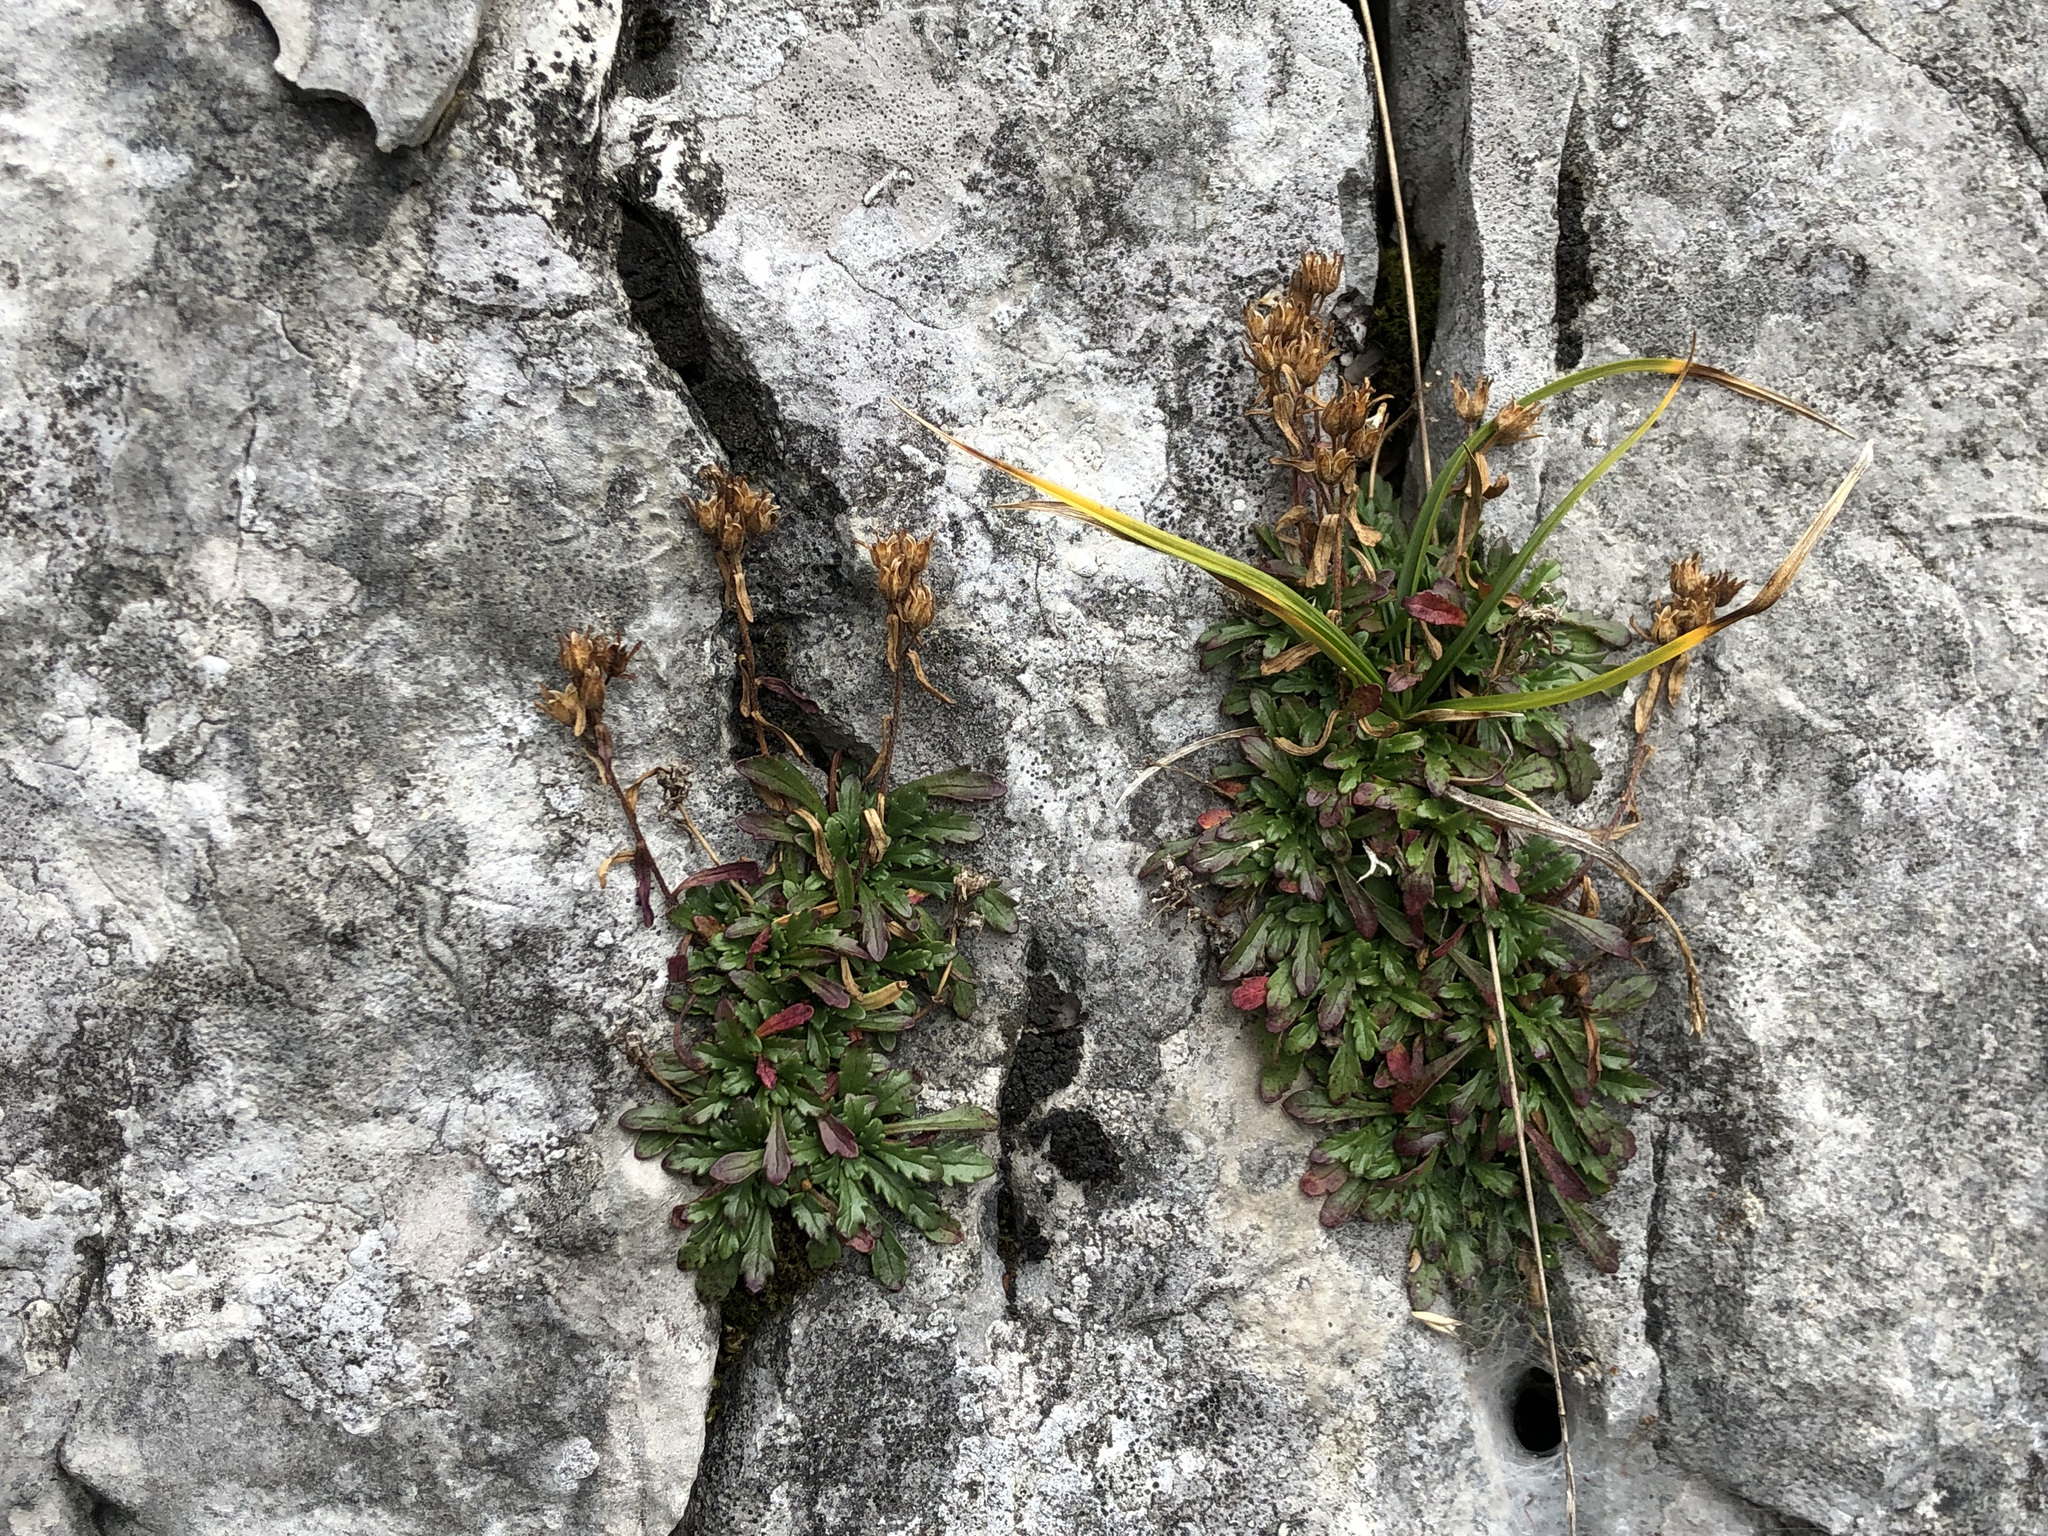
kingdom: Plantae
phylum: Tracheophyta
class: Magnoliopsida
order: Lamiales
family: Plantaginaceae
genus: Erinus
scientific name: Erinus alpinus
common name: Fairy foxglove
